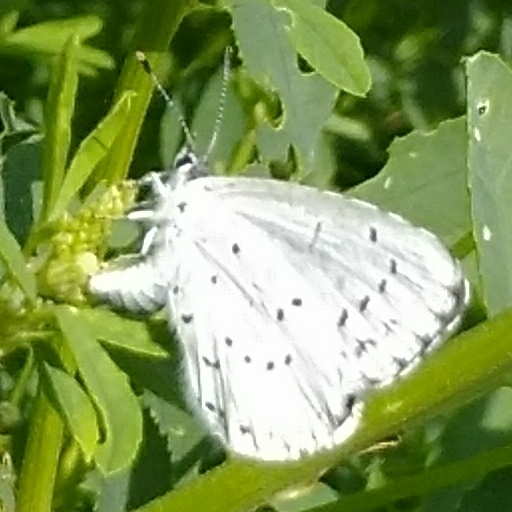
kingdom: Animalia
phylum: Arthropoda
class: Insecta
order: Lepidoptera
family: Lycaenidae
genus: Celastrina
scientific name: Celastrina argiolus
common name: Holly blue
